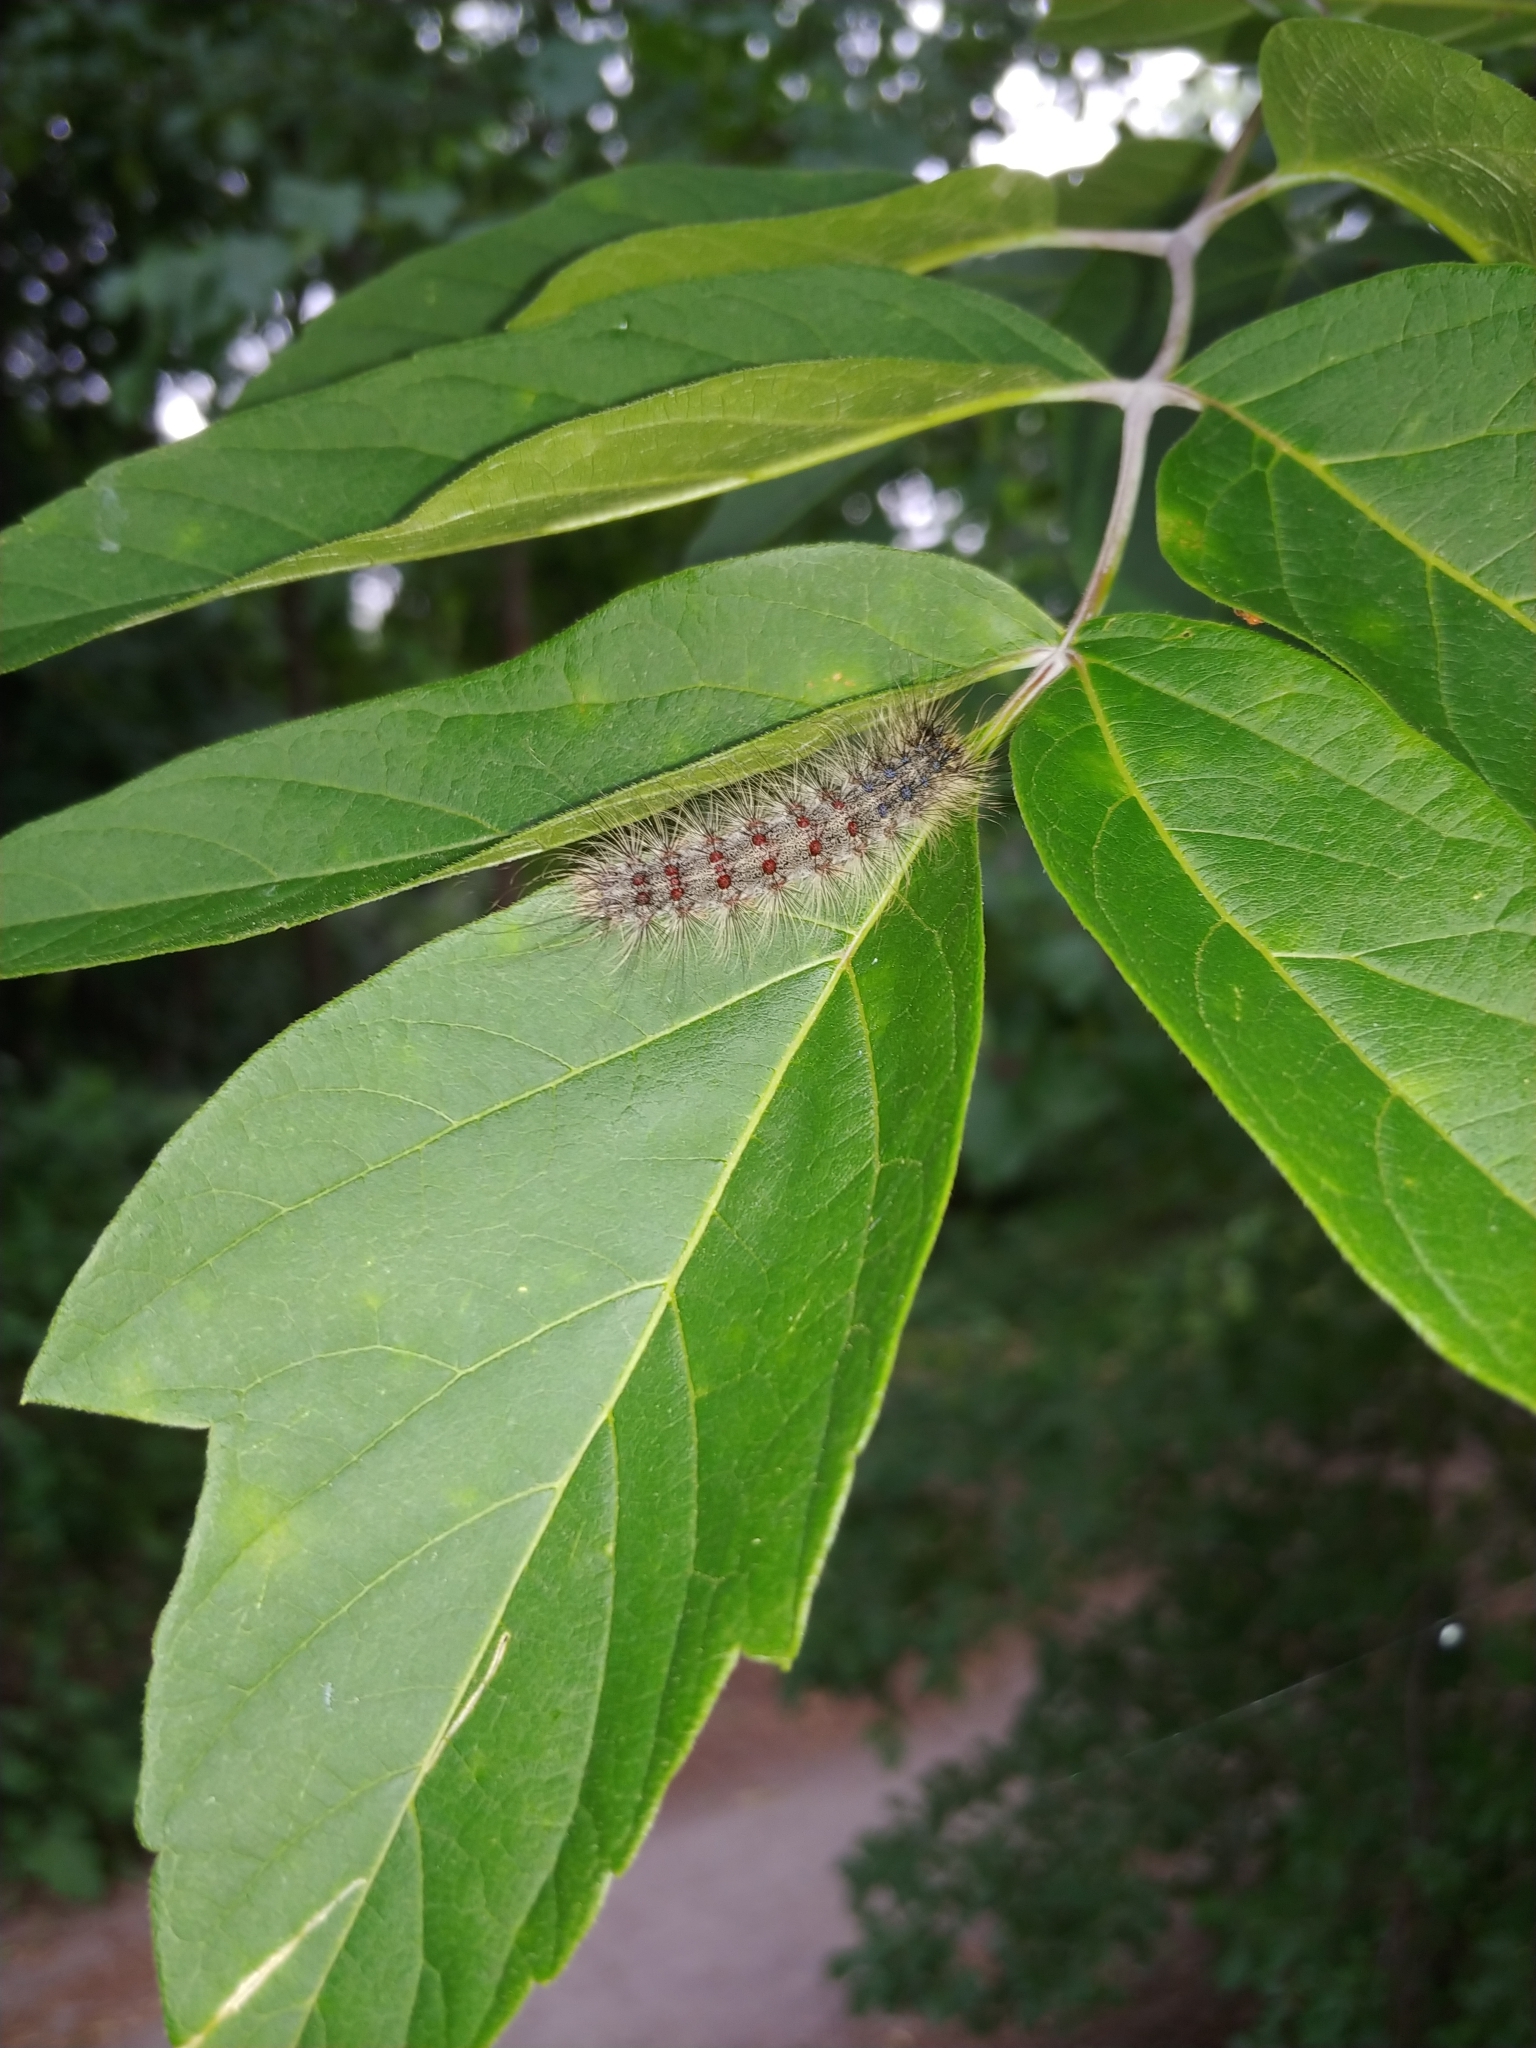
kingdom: Animalia
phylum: Arthropoda
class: Insecta
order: Lepidoptera
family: Erebidae
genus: Lymantria
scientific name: Lymantria dispar
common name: Gypsy moth
